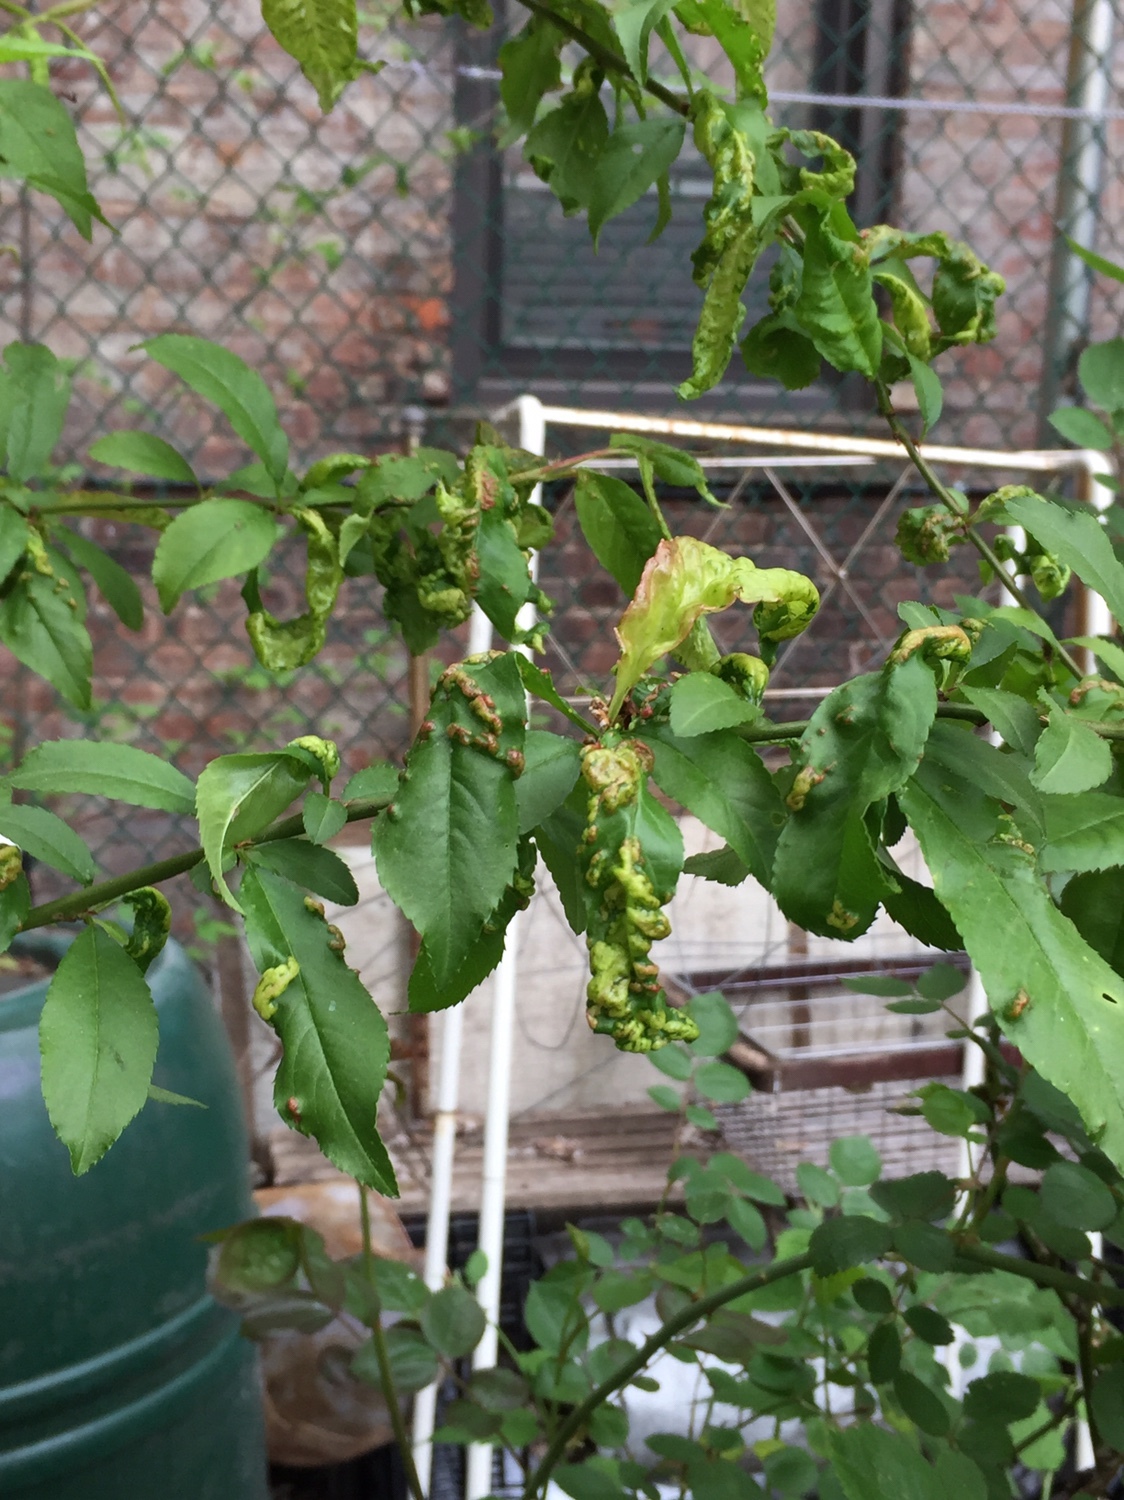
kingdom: Fungi
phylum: Ascomycota
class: Taphrinomycetes
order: Taphrinales
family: Taphrinaceae
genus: Taphrina
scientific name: Taphrina deformans
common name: Peach leaf curl
